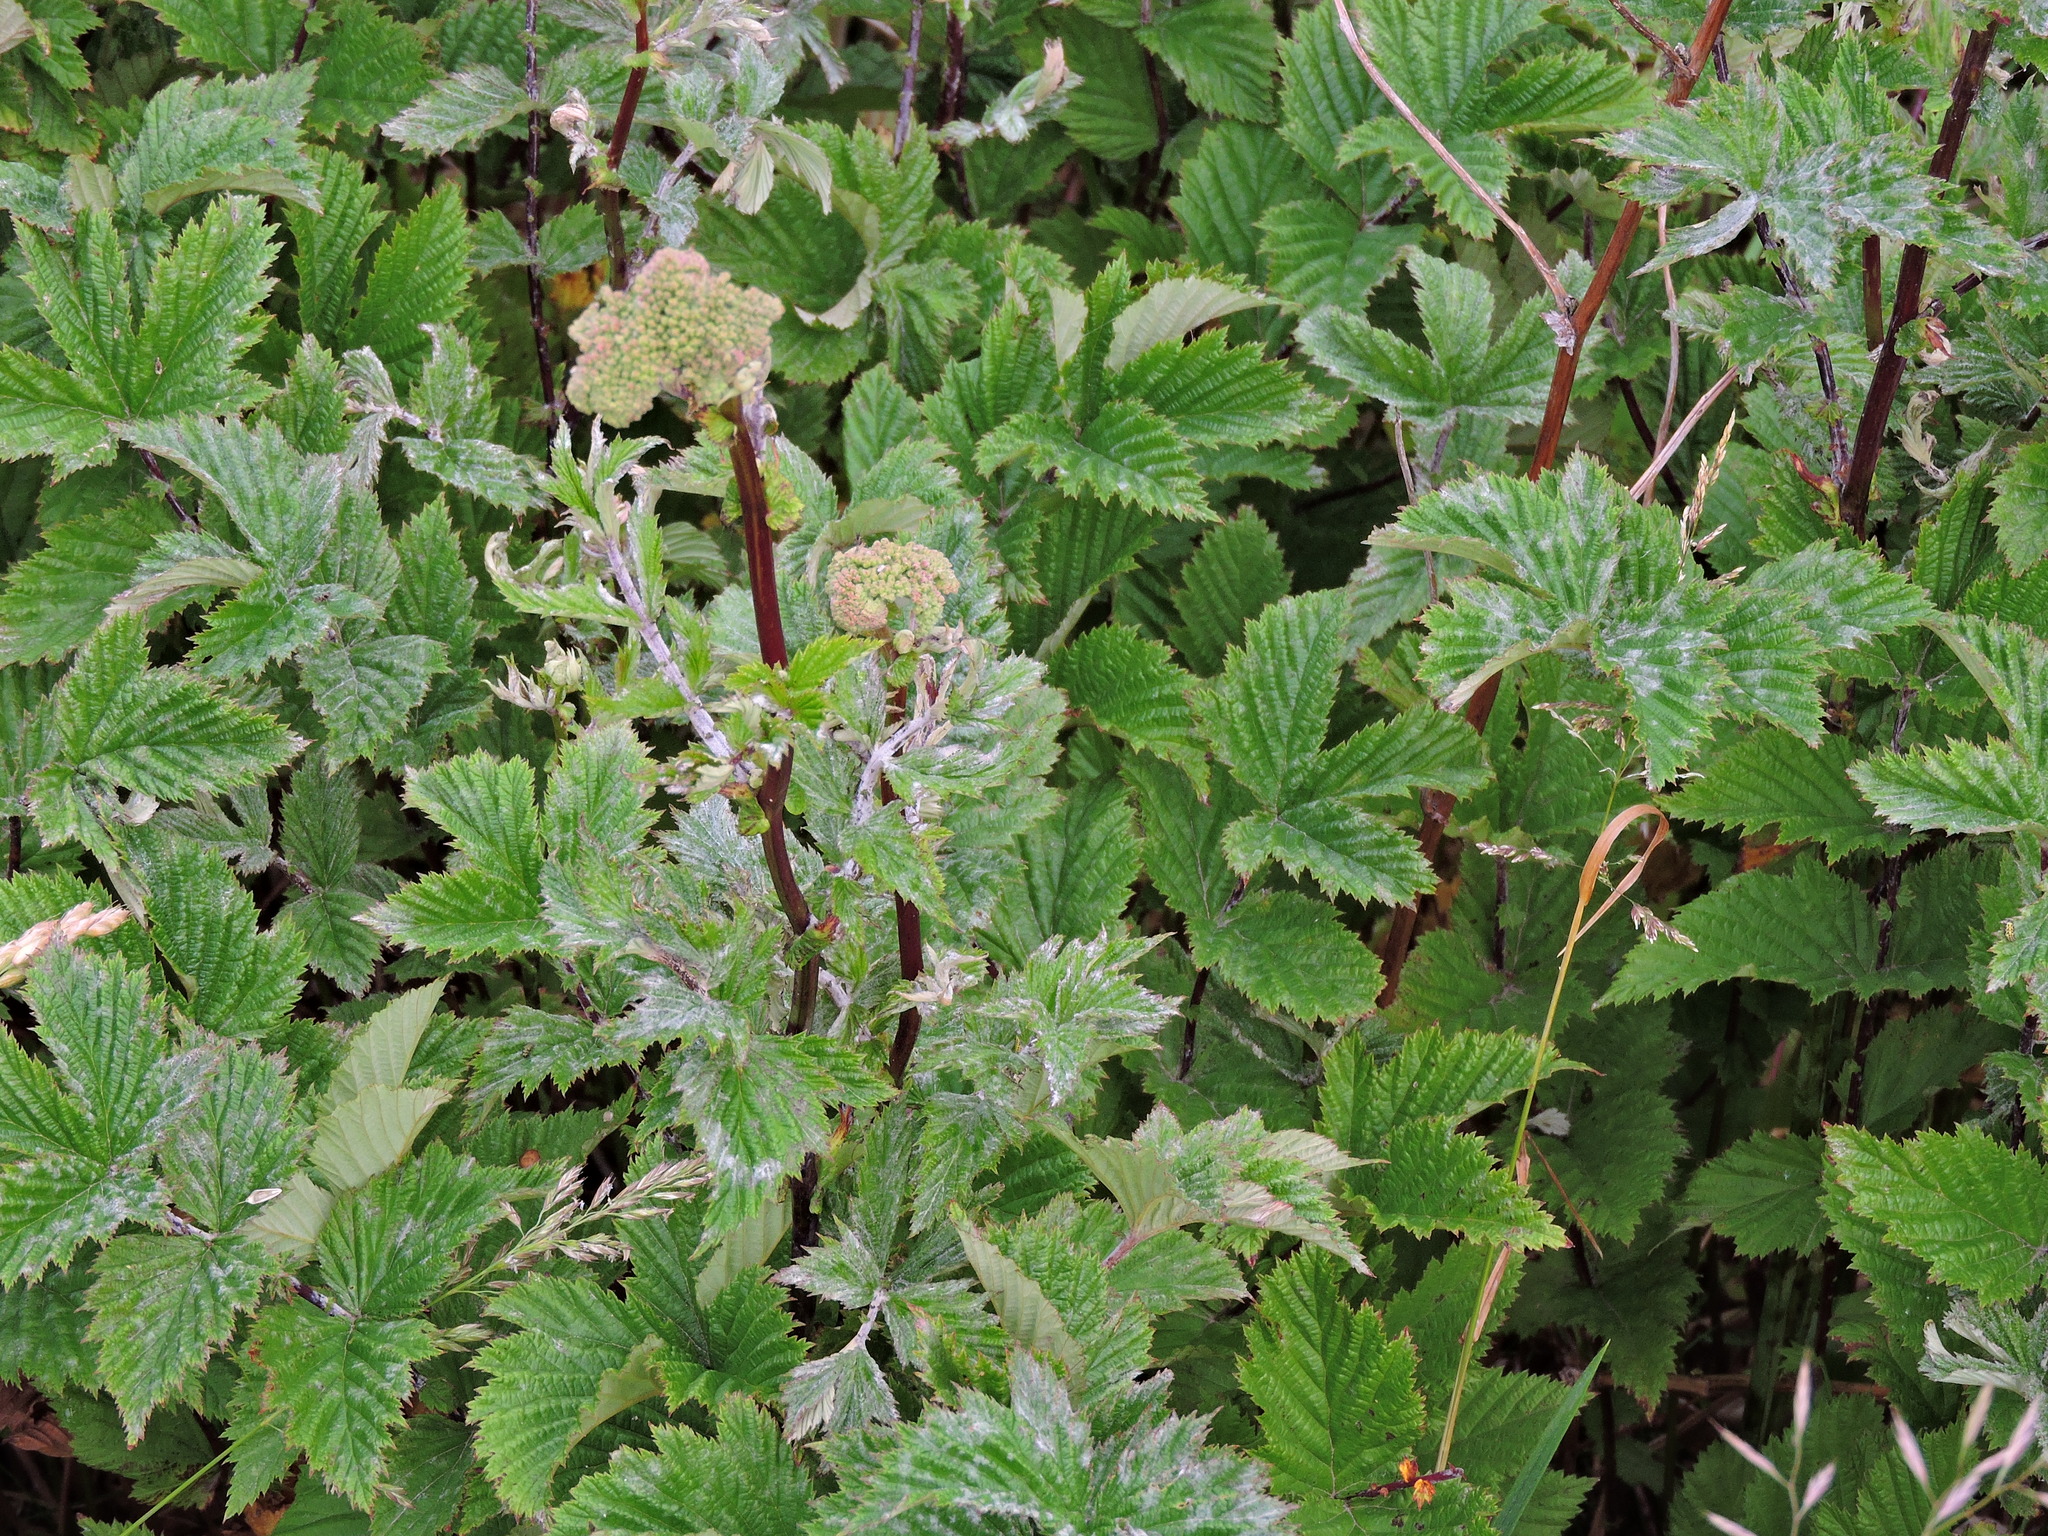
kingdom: Plantae
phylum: Tracheophyta
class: Magnoliopsida
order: Rosales
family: Rosaceae
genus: Filipendula
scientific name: Filipendula ulmaria
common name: Meadowsweet
